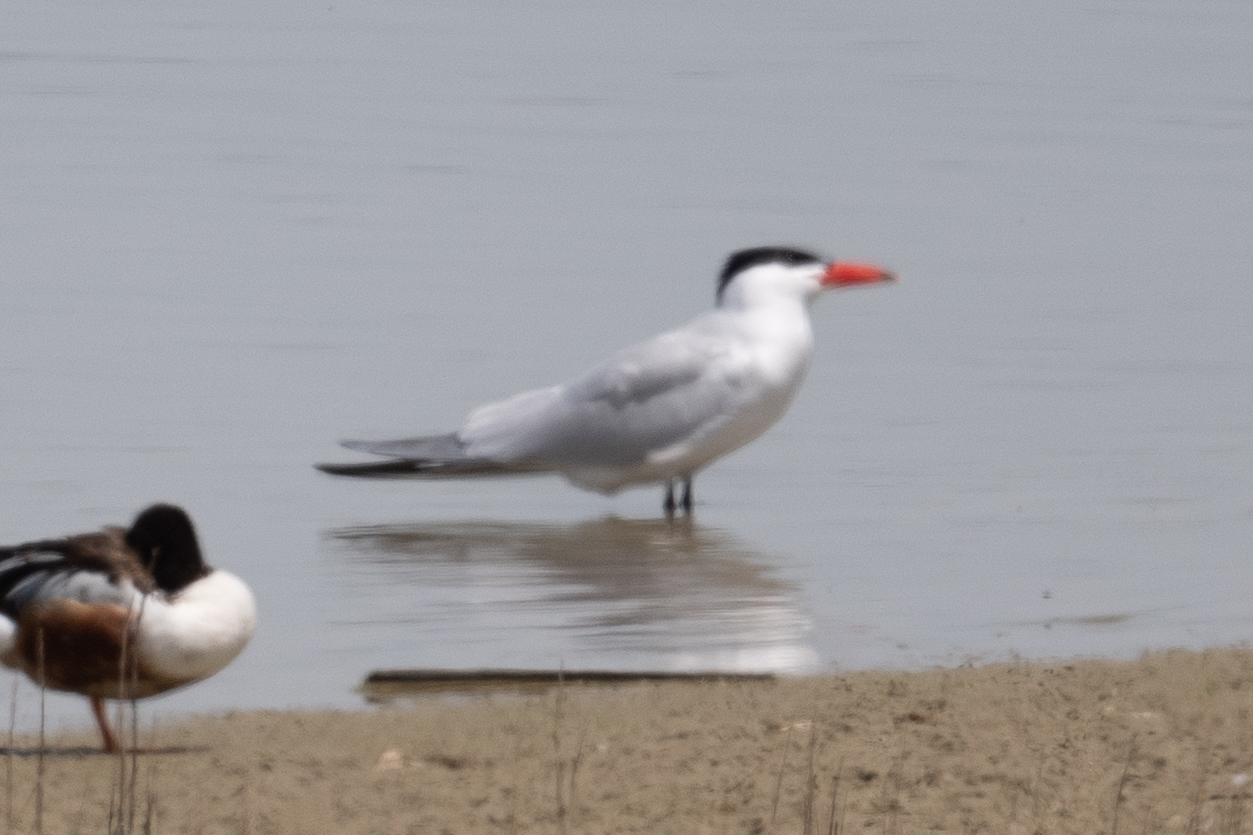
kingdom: Animalia
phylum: Chordata
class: Aves
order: Charadriiformes
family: Laridae
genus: Hydroprogne
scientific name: Hydroprogne caspia
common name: Caspian tern
